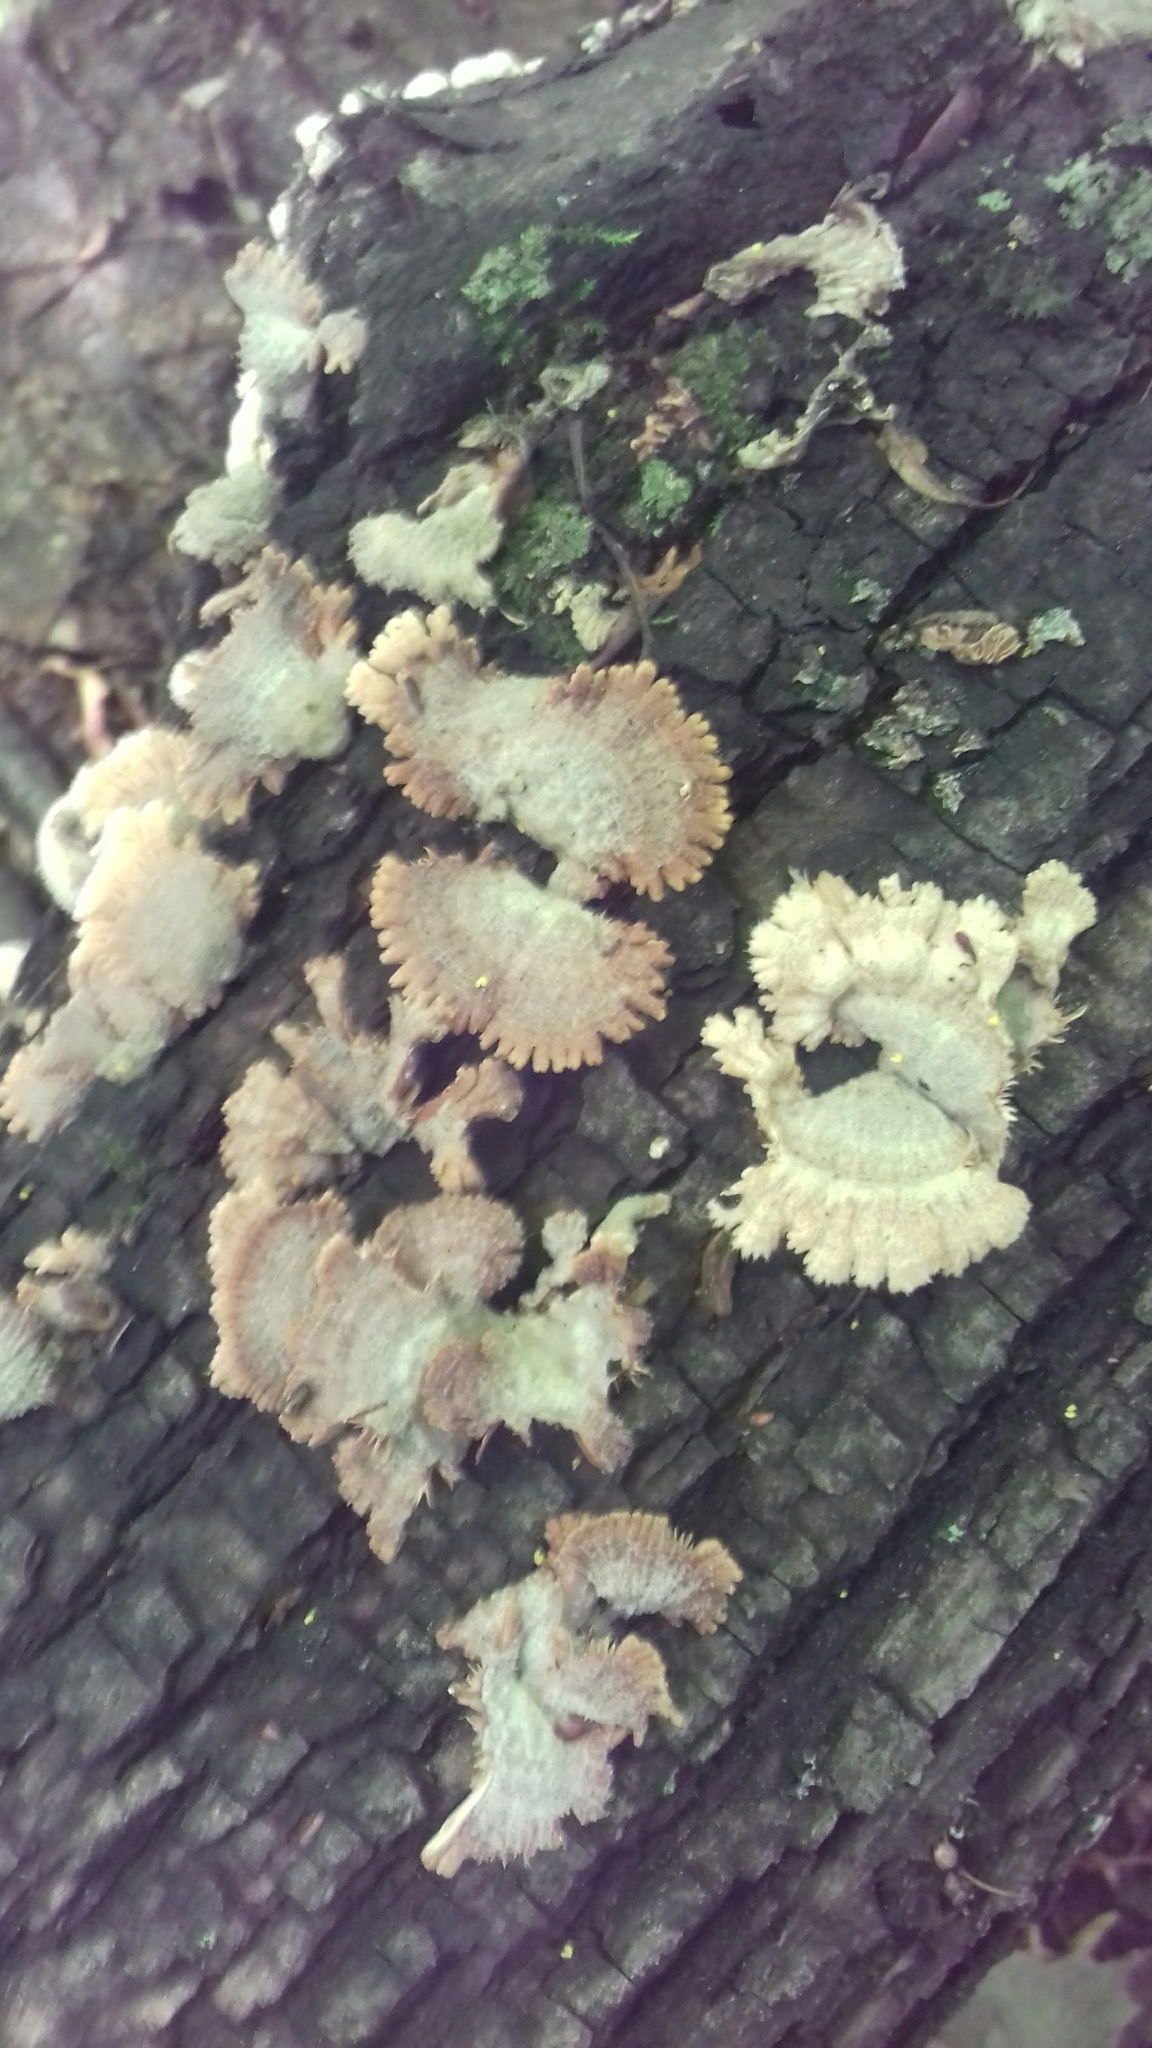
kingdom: Fungi
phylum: Basidiomycota
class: Agaricomycetes
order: Agaricales
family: Schizophyllaceae
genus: Schizophyllum
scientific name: Schizophyllum commune
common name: Common porecrust
